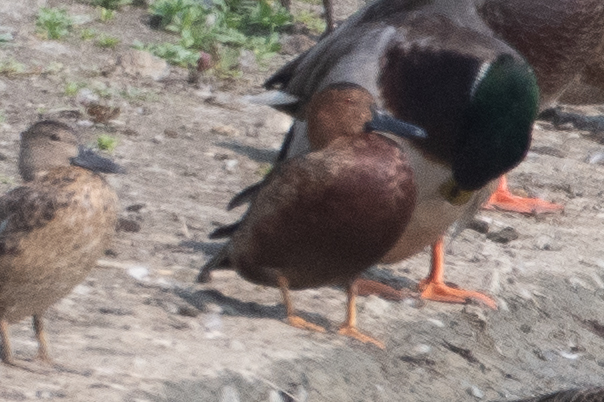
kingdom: Animalia
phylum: Chordata
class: Aves
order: Anseriformes
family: Anatidae
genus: Spatula
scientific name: Spatula cyanoptera
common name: Cinnamon teal
